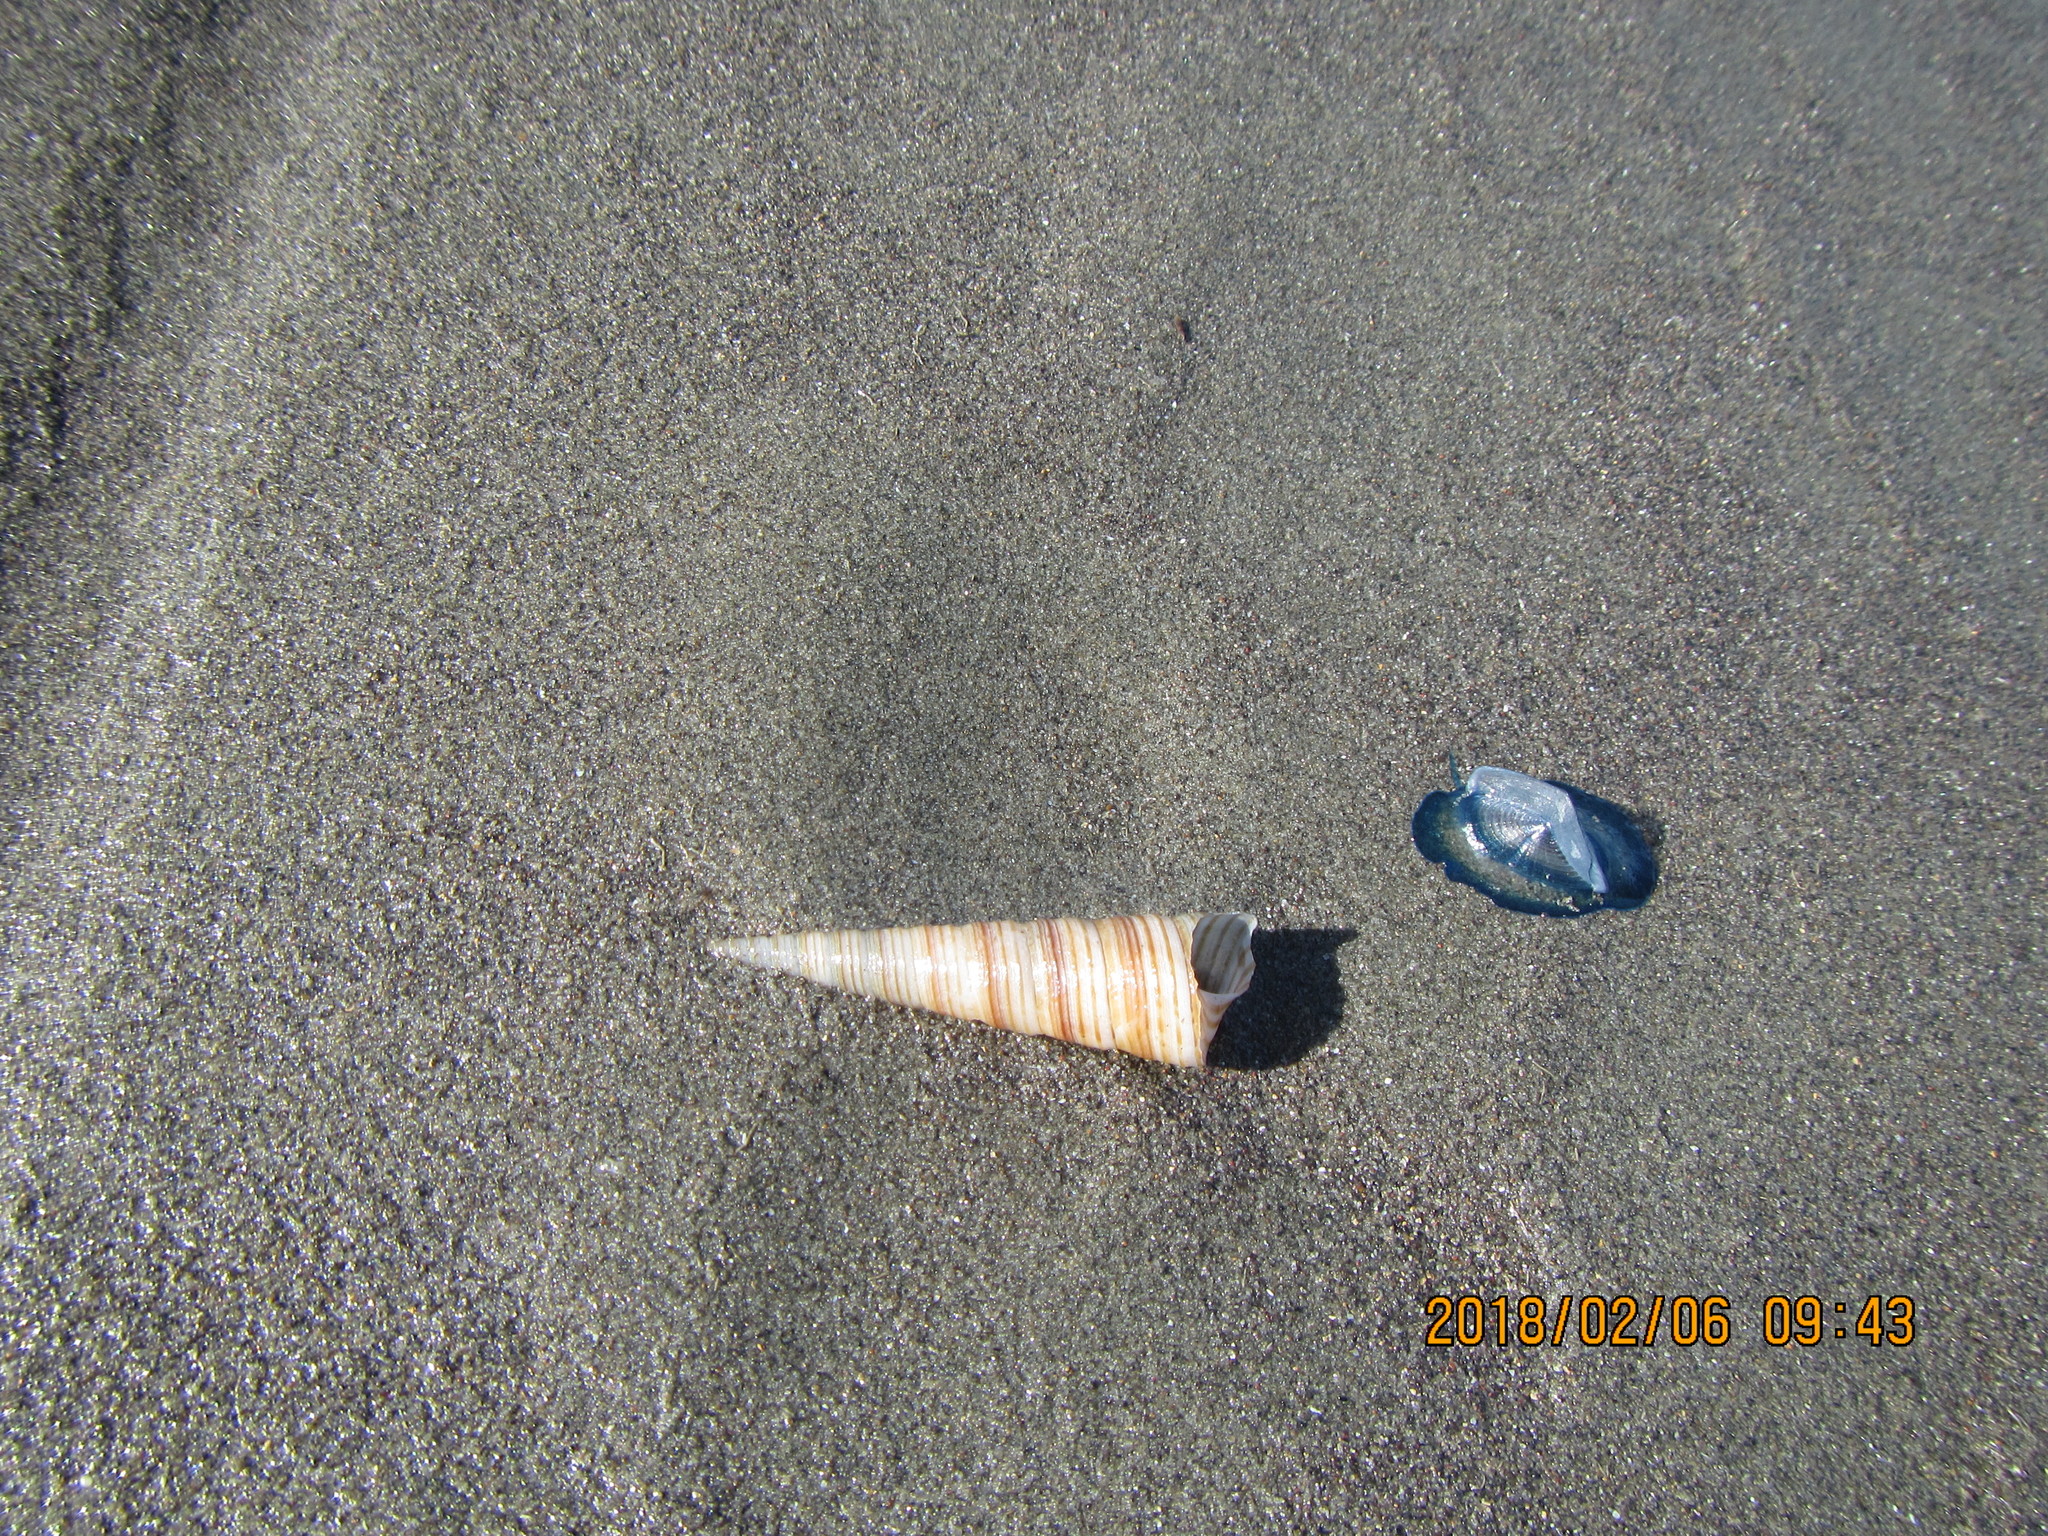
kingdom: Animalia
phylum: Mollusca
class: Gastropoda
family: Turritellidae
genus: Zeacolpus
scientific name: Zeacolpus vittatus
